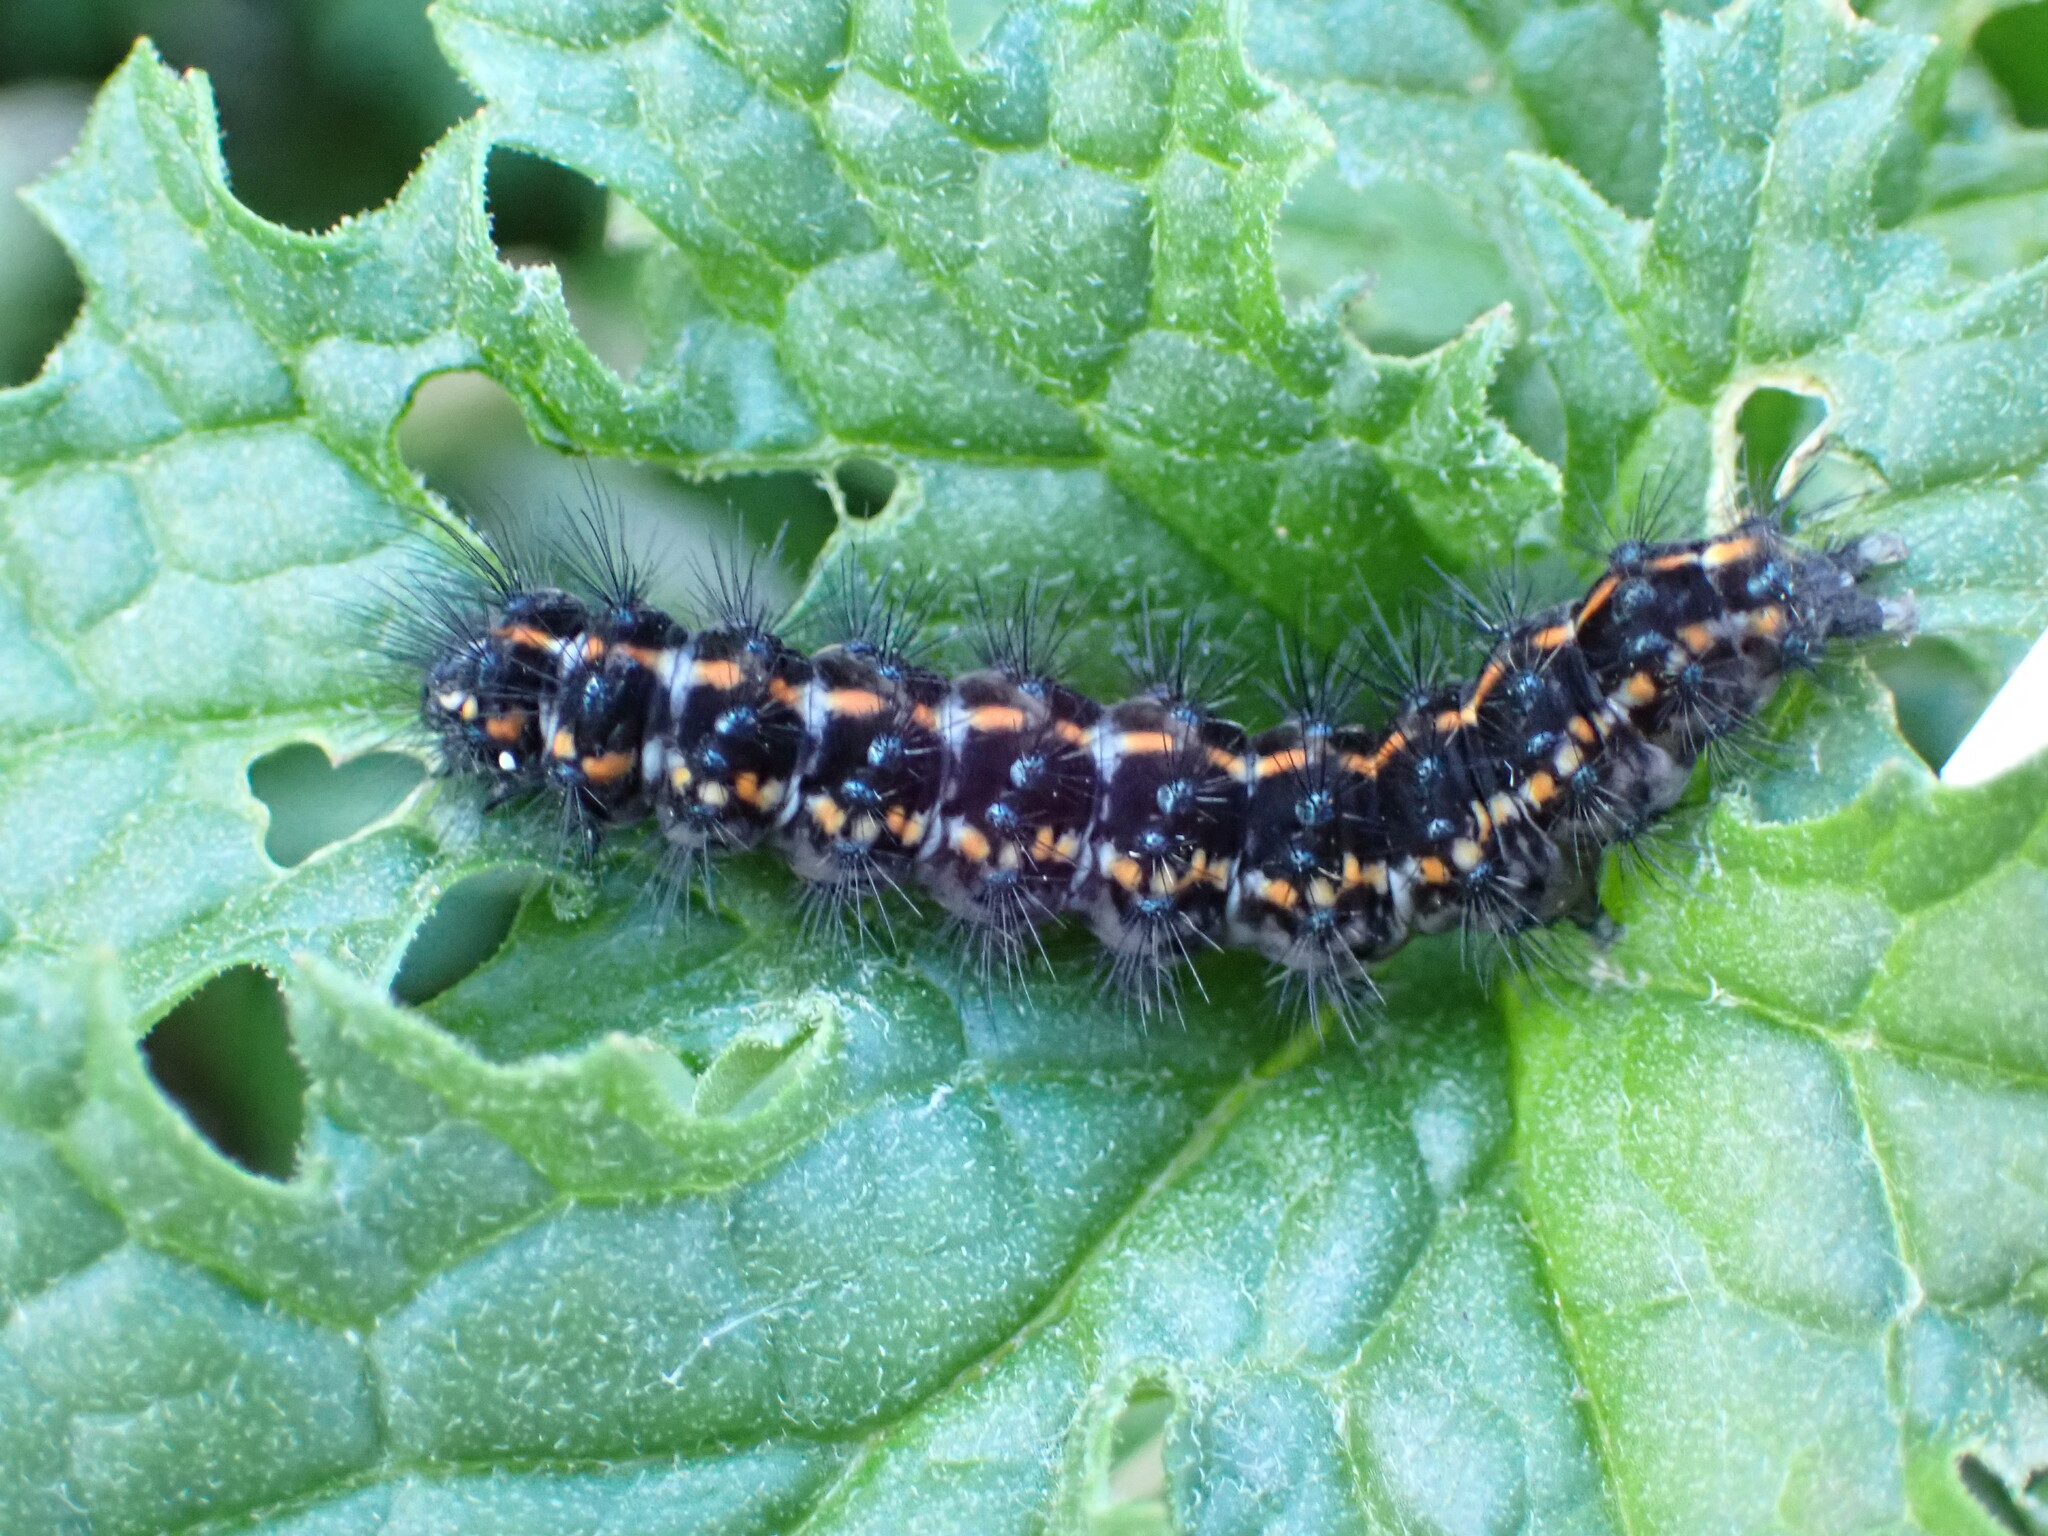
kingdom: Animalia
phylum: Arthropoda
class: Insecta
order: Lepidoptera
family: Erebidae
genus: Nyctemera
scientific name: Nyctemera annulatum
